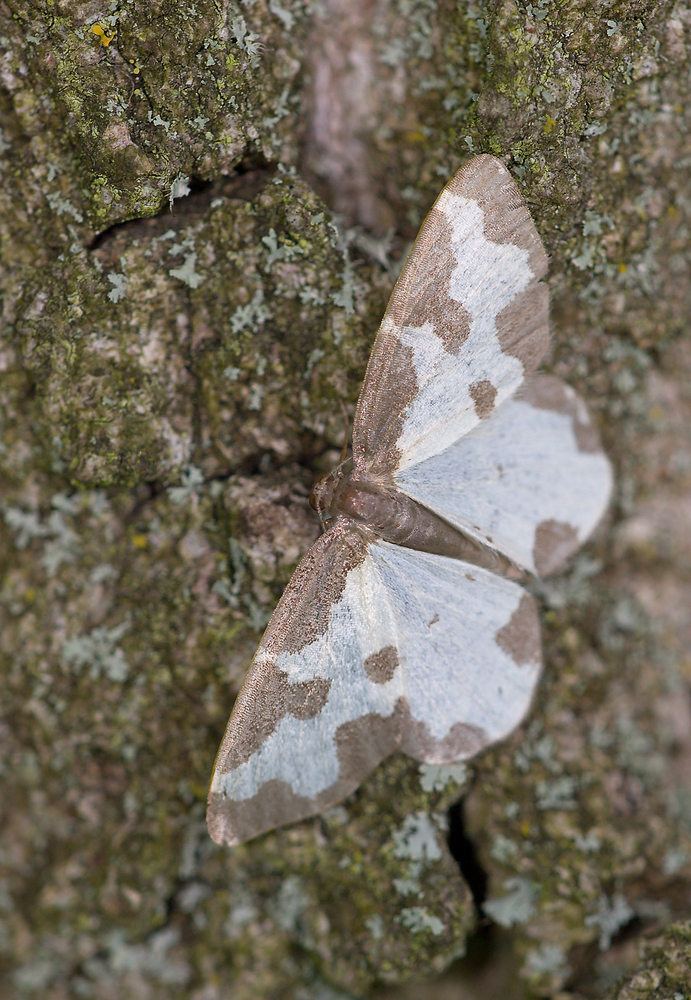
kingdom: Animalia
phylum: Arthropoda
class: Insecta
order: Lepidoptera
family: Geometridae
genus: Lomaspilis
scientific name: Lomaspilis marginata
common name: Clouded border
